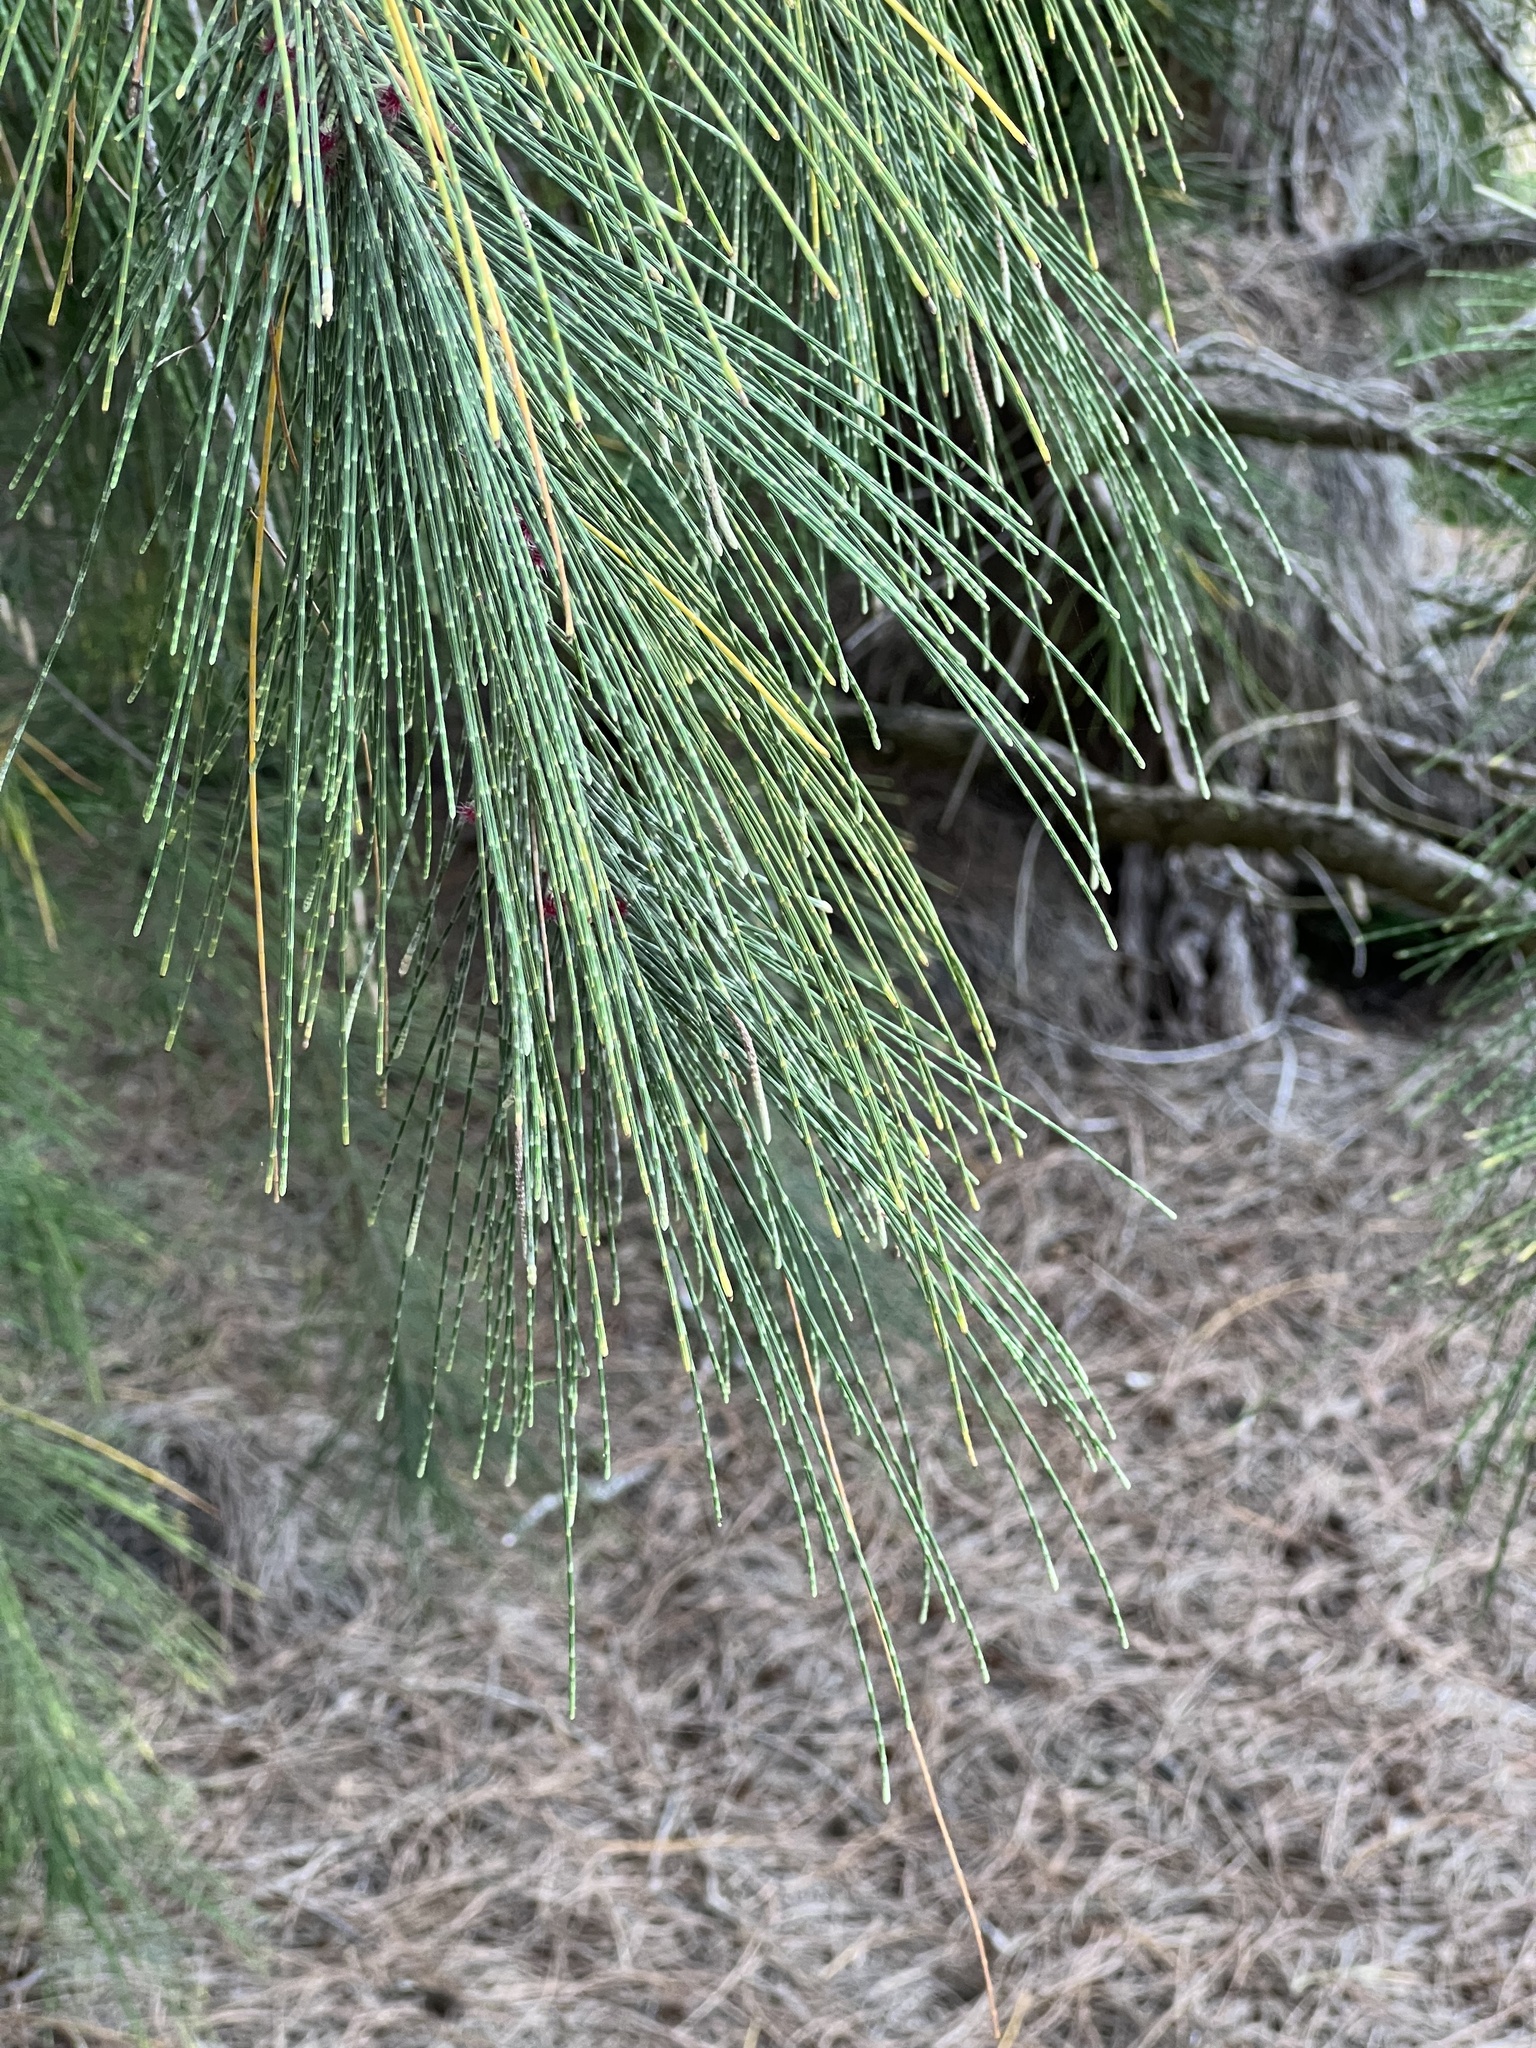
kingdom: Plantae
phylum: Tracheophyta
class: Magnoliopsida
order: Fagales
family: Casuarinaceae
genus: Casuarina
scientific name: Casuarina equisetifolia
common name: Beach sheoak
